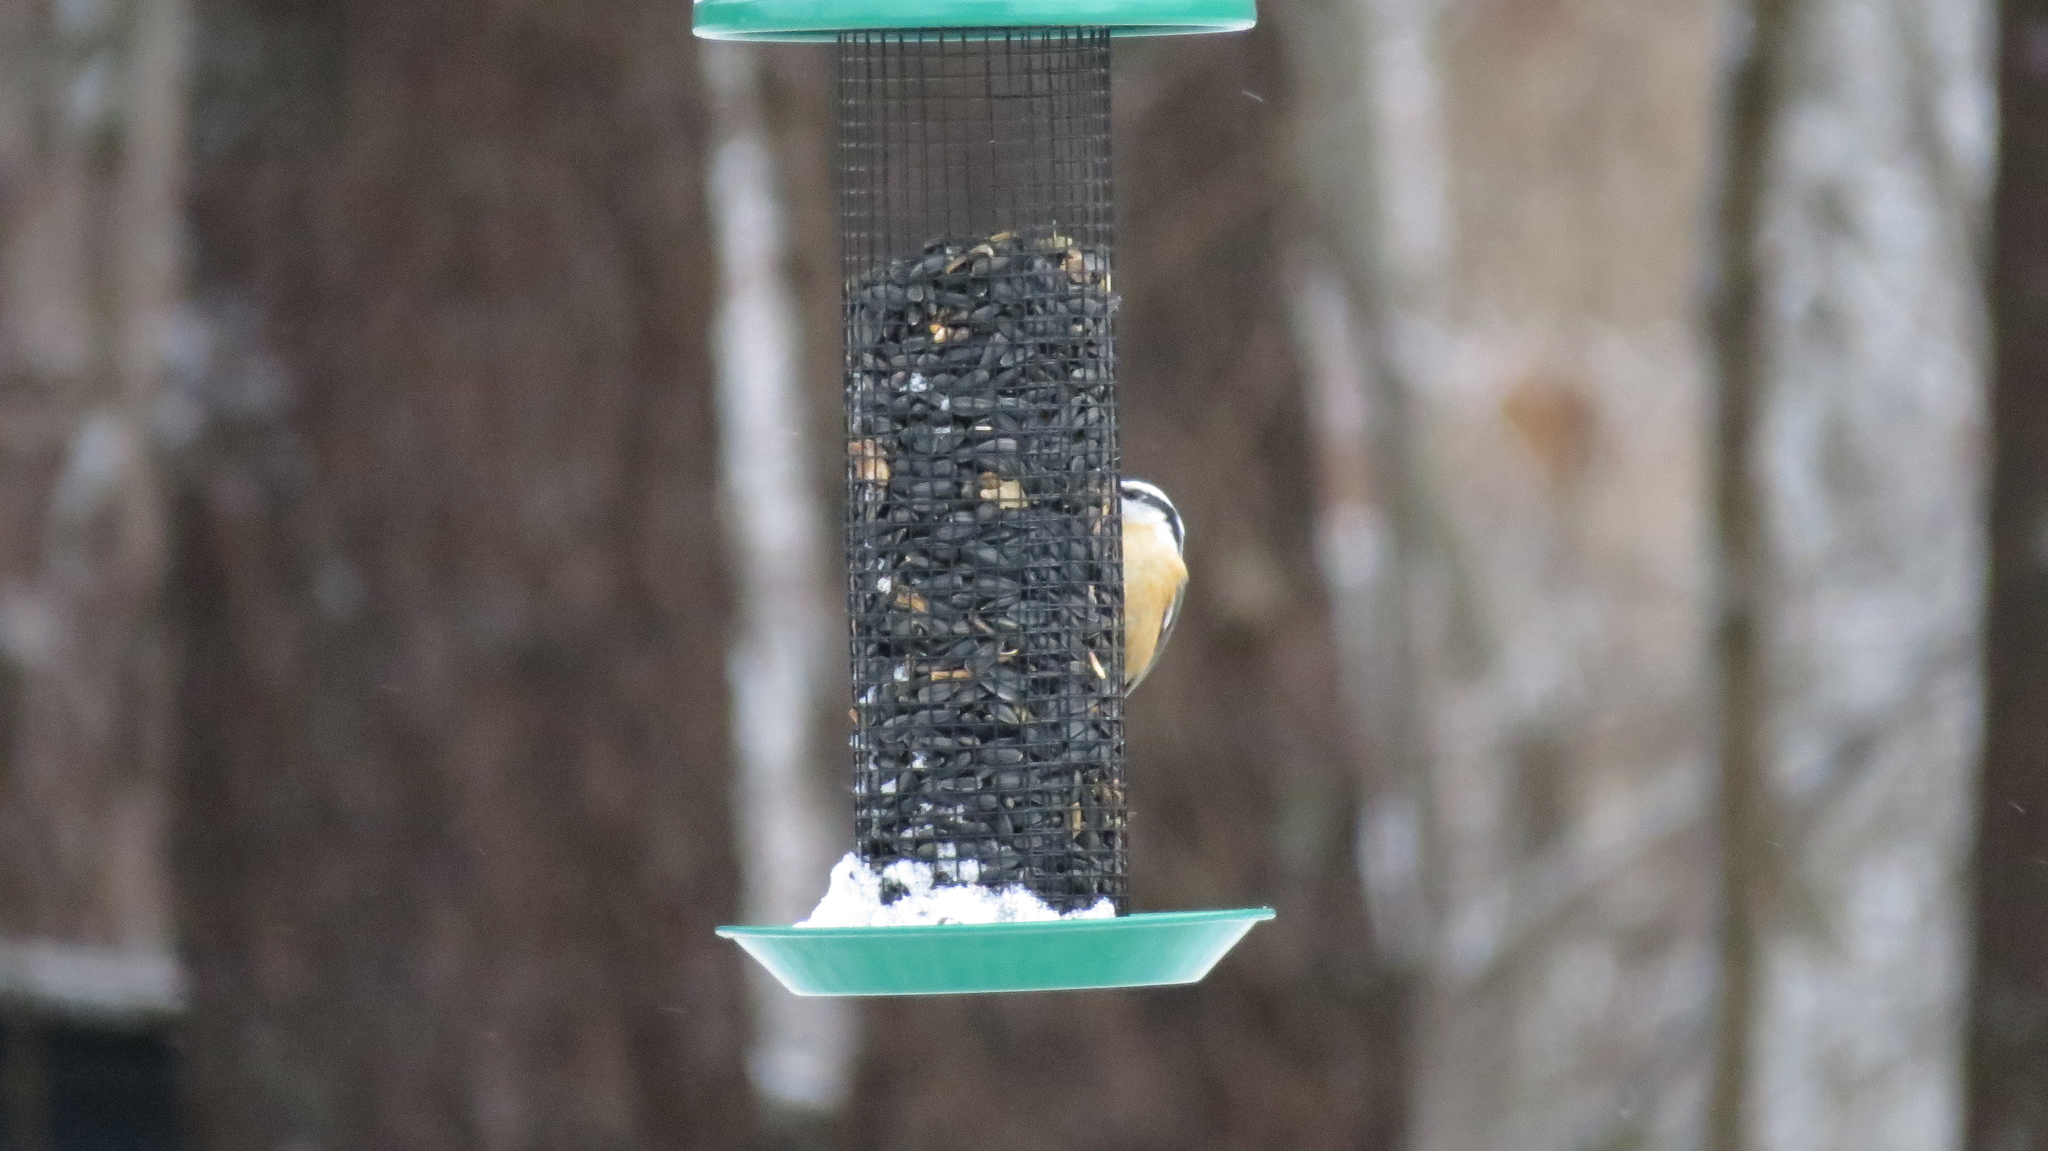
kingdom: Animalia
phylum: Chordata
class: Aves
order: Passeriformes
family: Sittidae
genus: Sitta
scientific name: Sitta canadensis
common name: Red-breasted nuthatch
